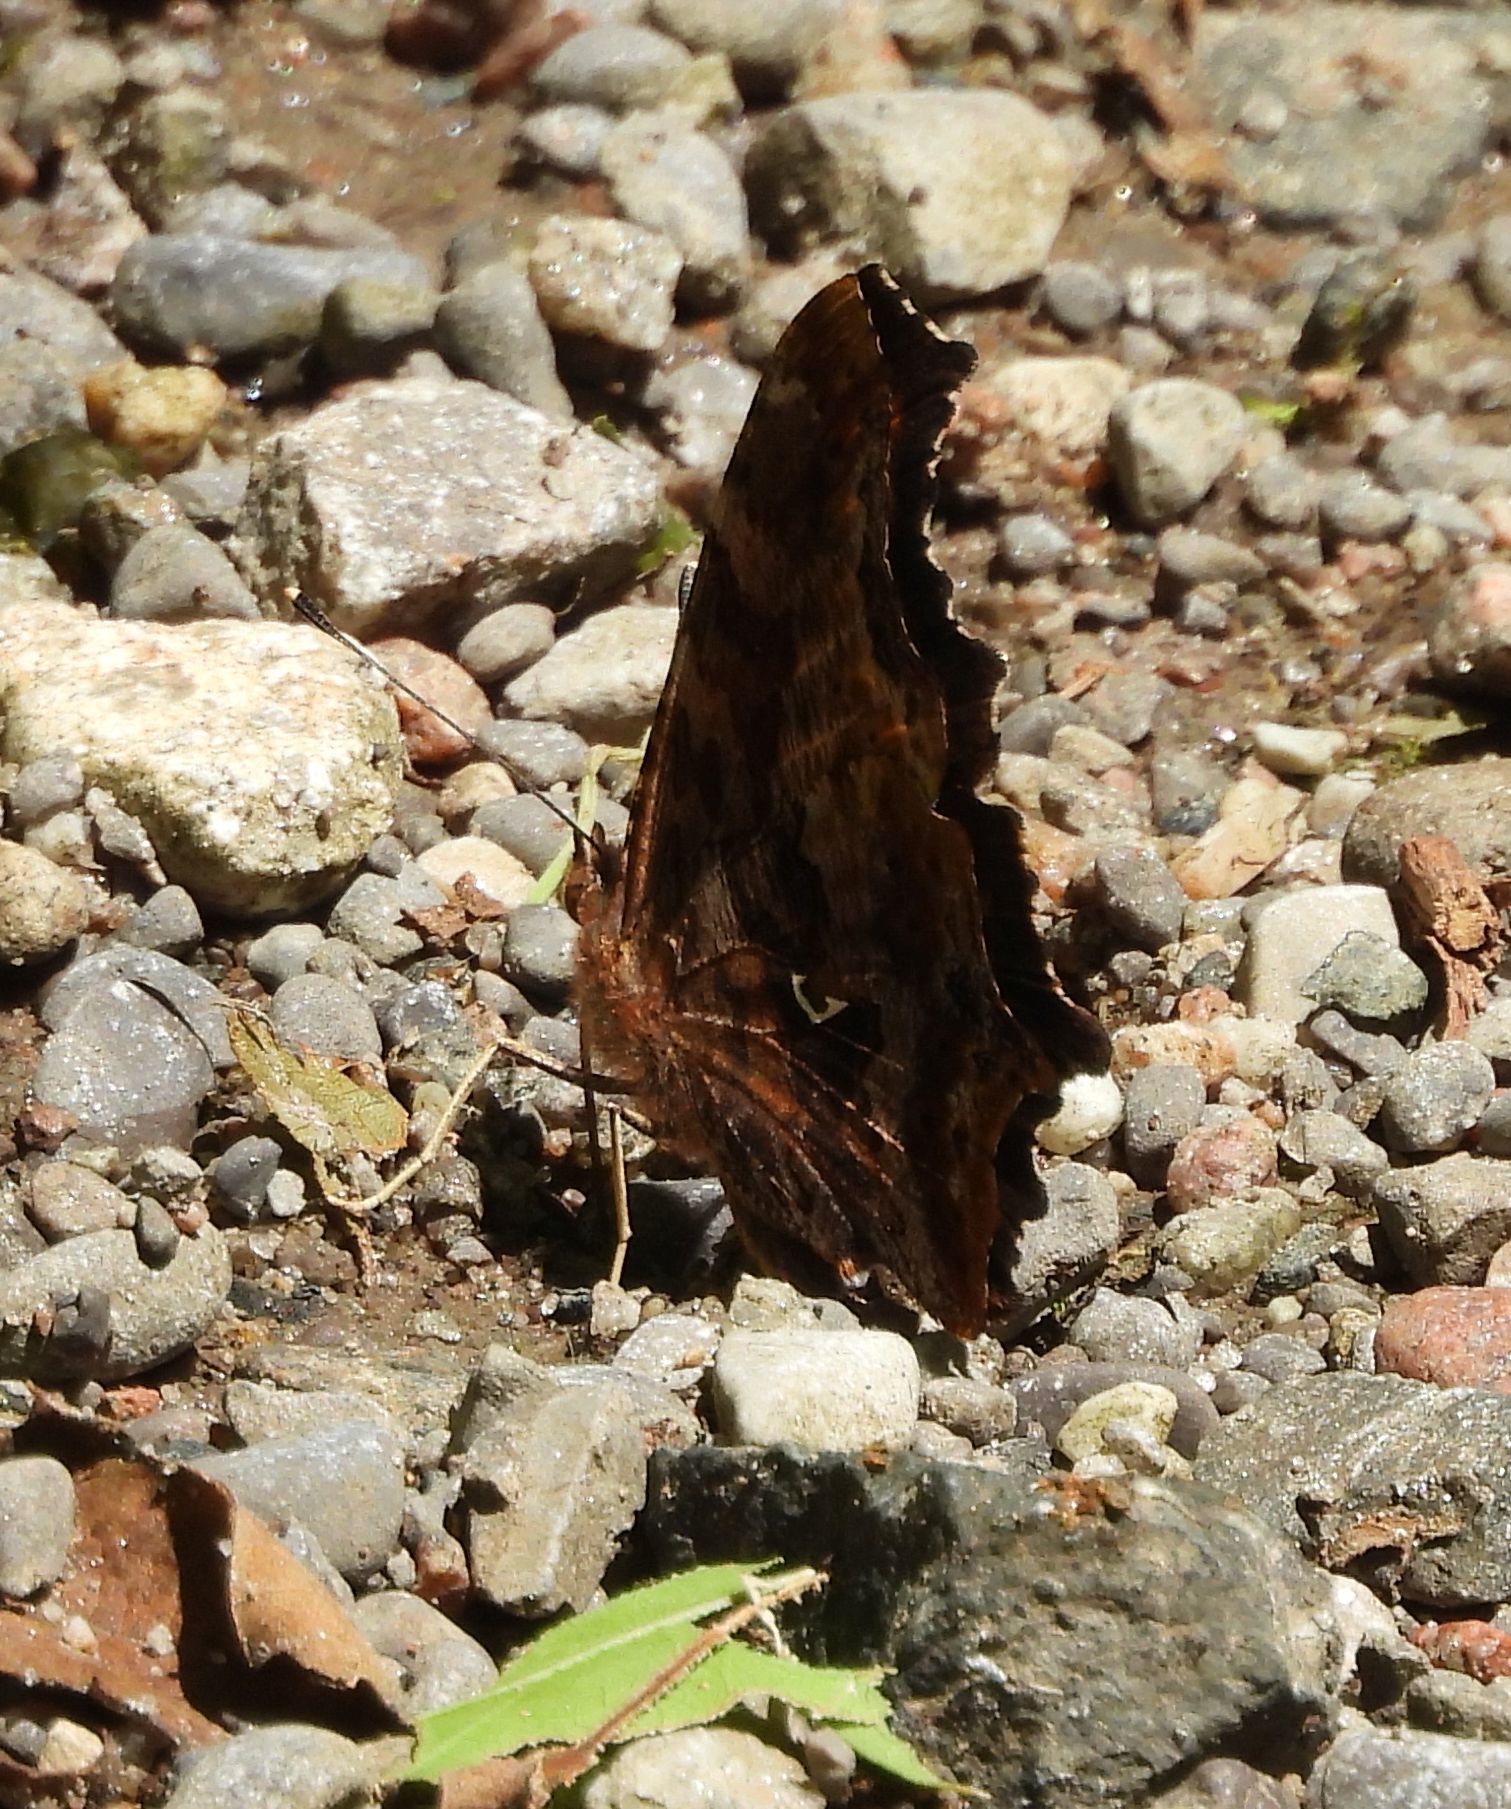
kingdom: Animalia
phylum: Arthropoda
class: Insecta
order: Lepidoptera
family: Nymphalidae
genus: Polygonia
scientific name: Polygonia comma
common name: Eastern comma
